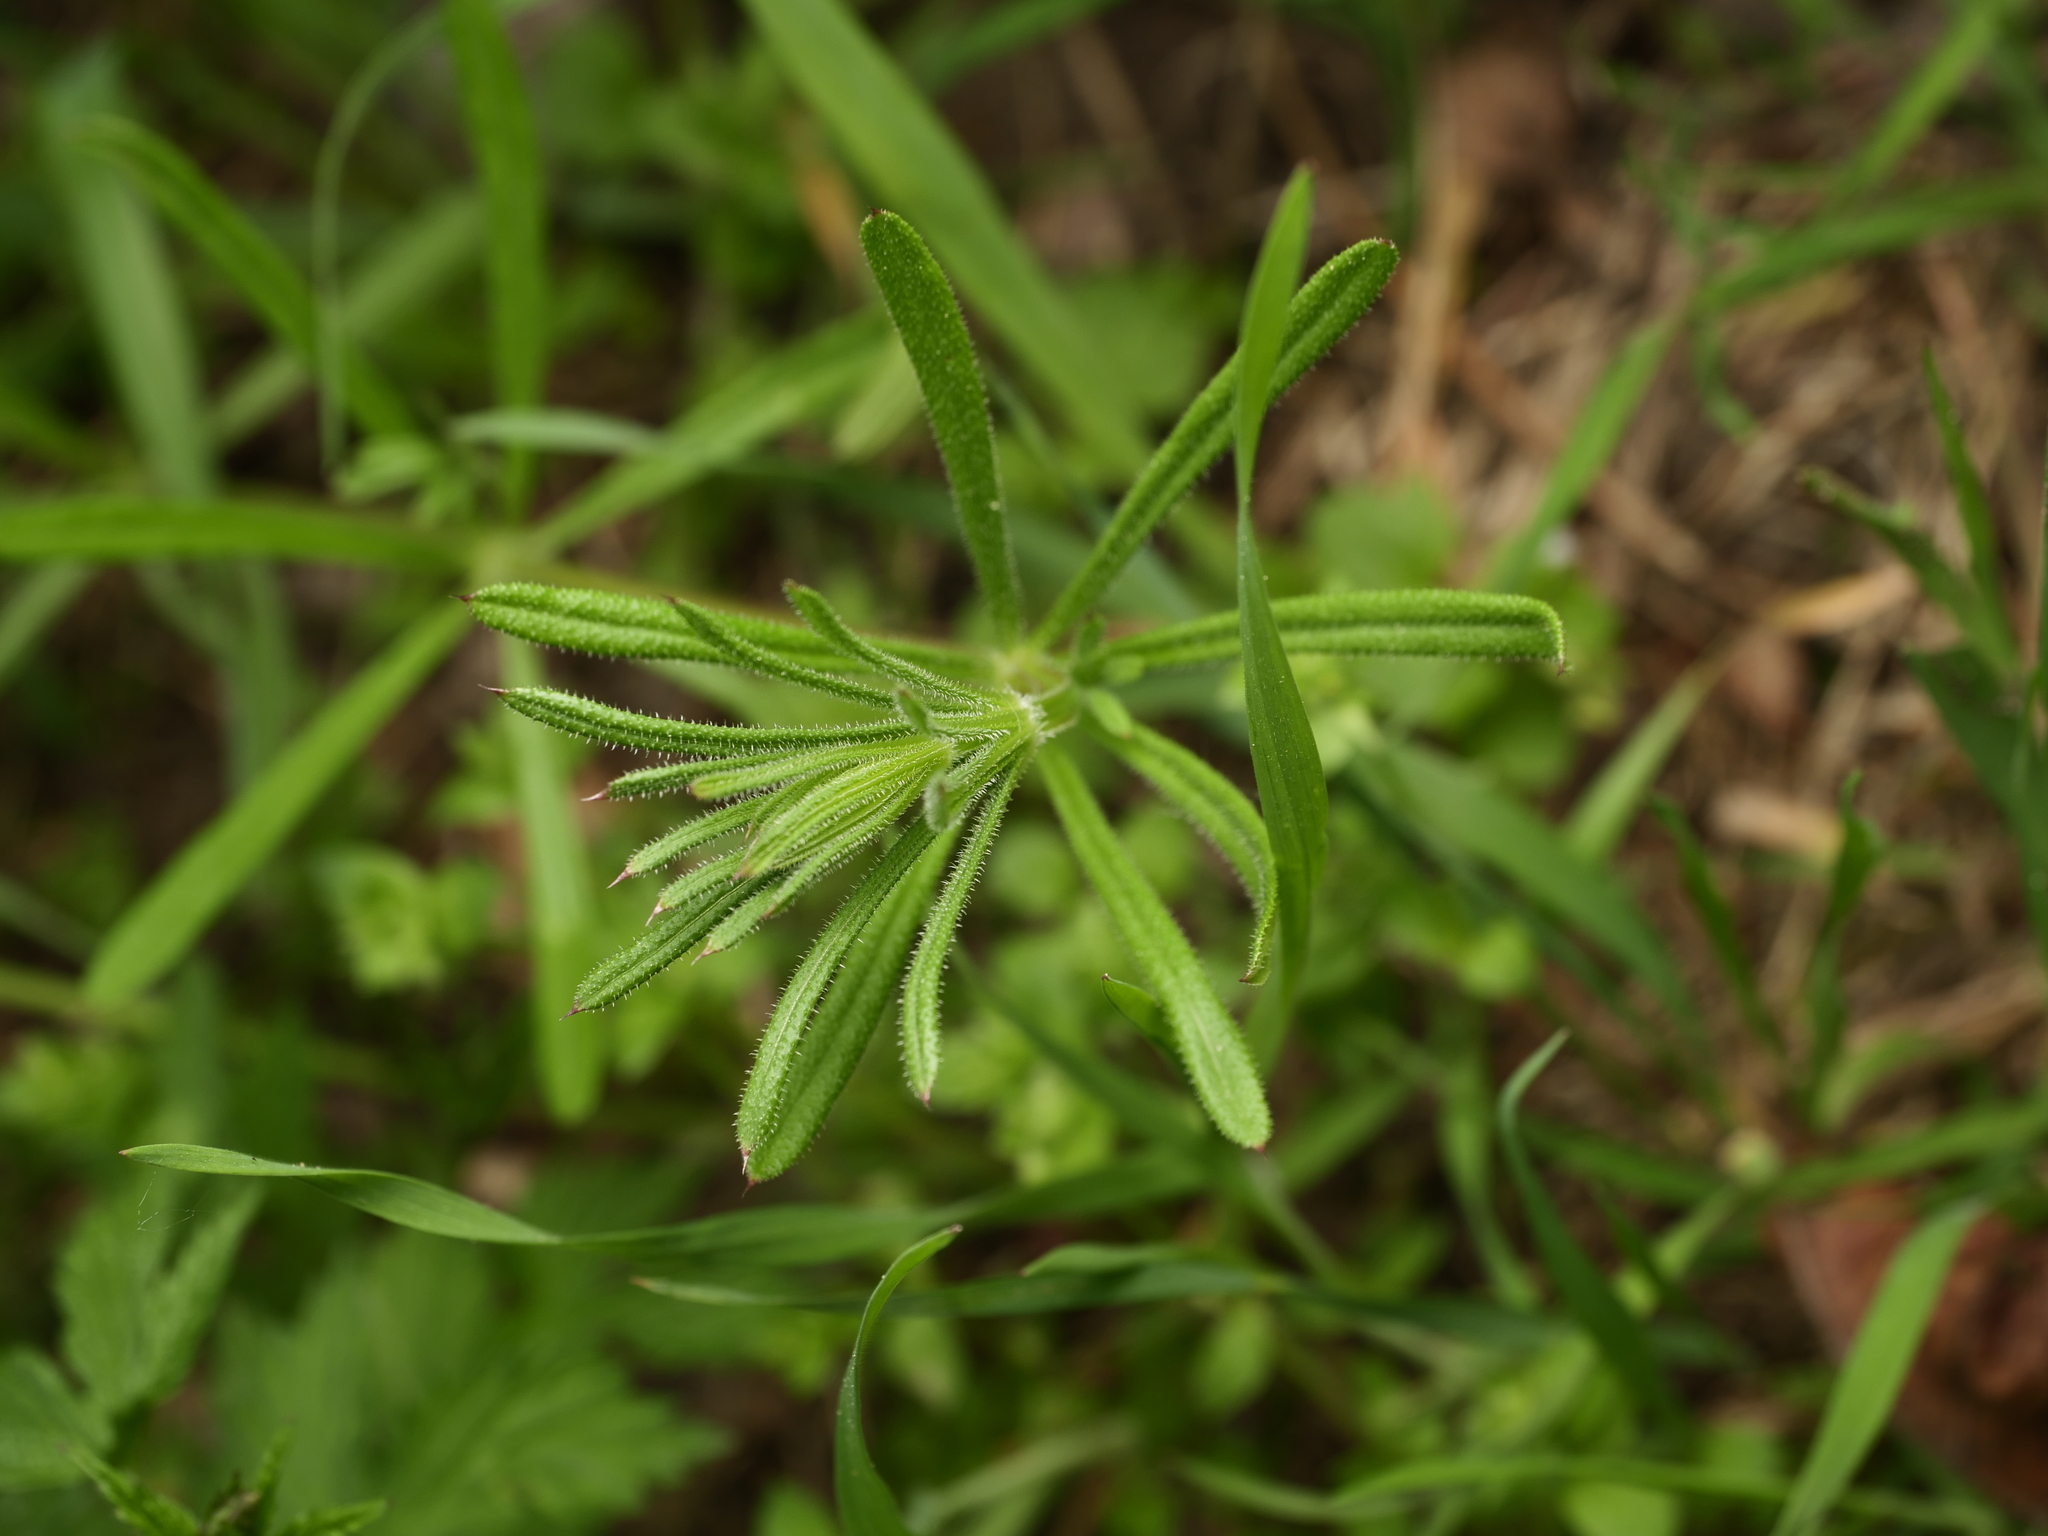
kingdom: Plantae
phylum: Tracheophyta
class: Magnoliopsida
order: Gentianales
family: Rubiaceae
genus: Galium
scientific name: Galium aparine
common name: Cleavers
